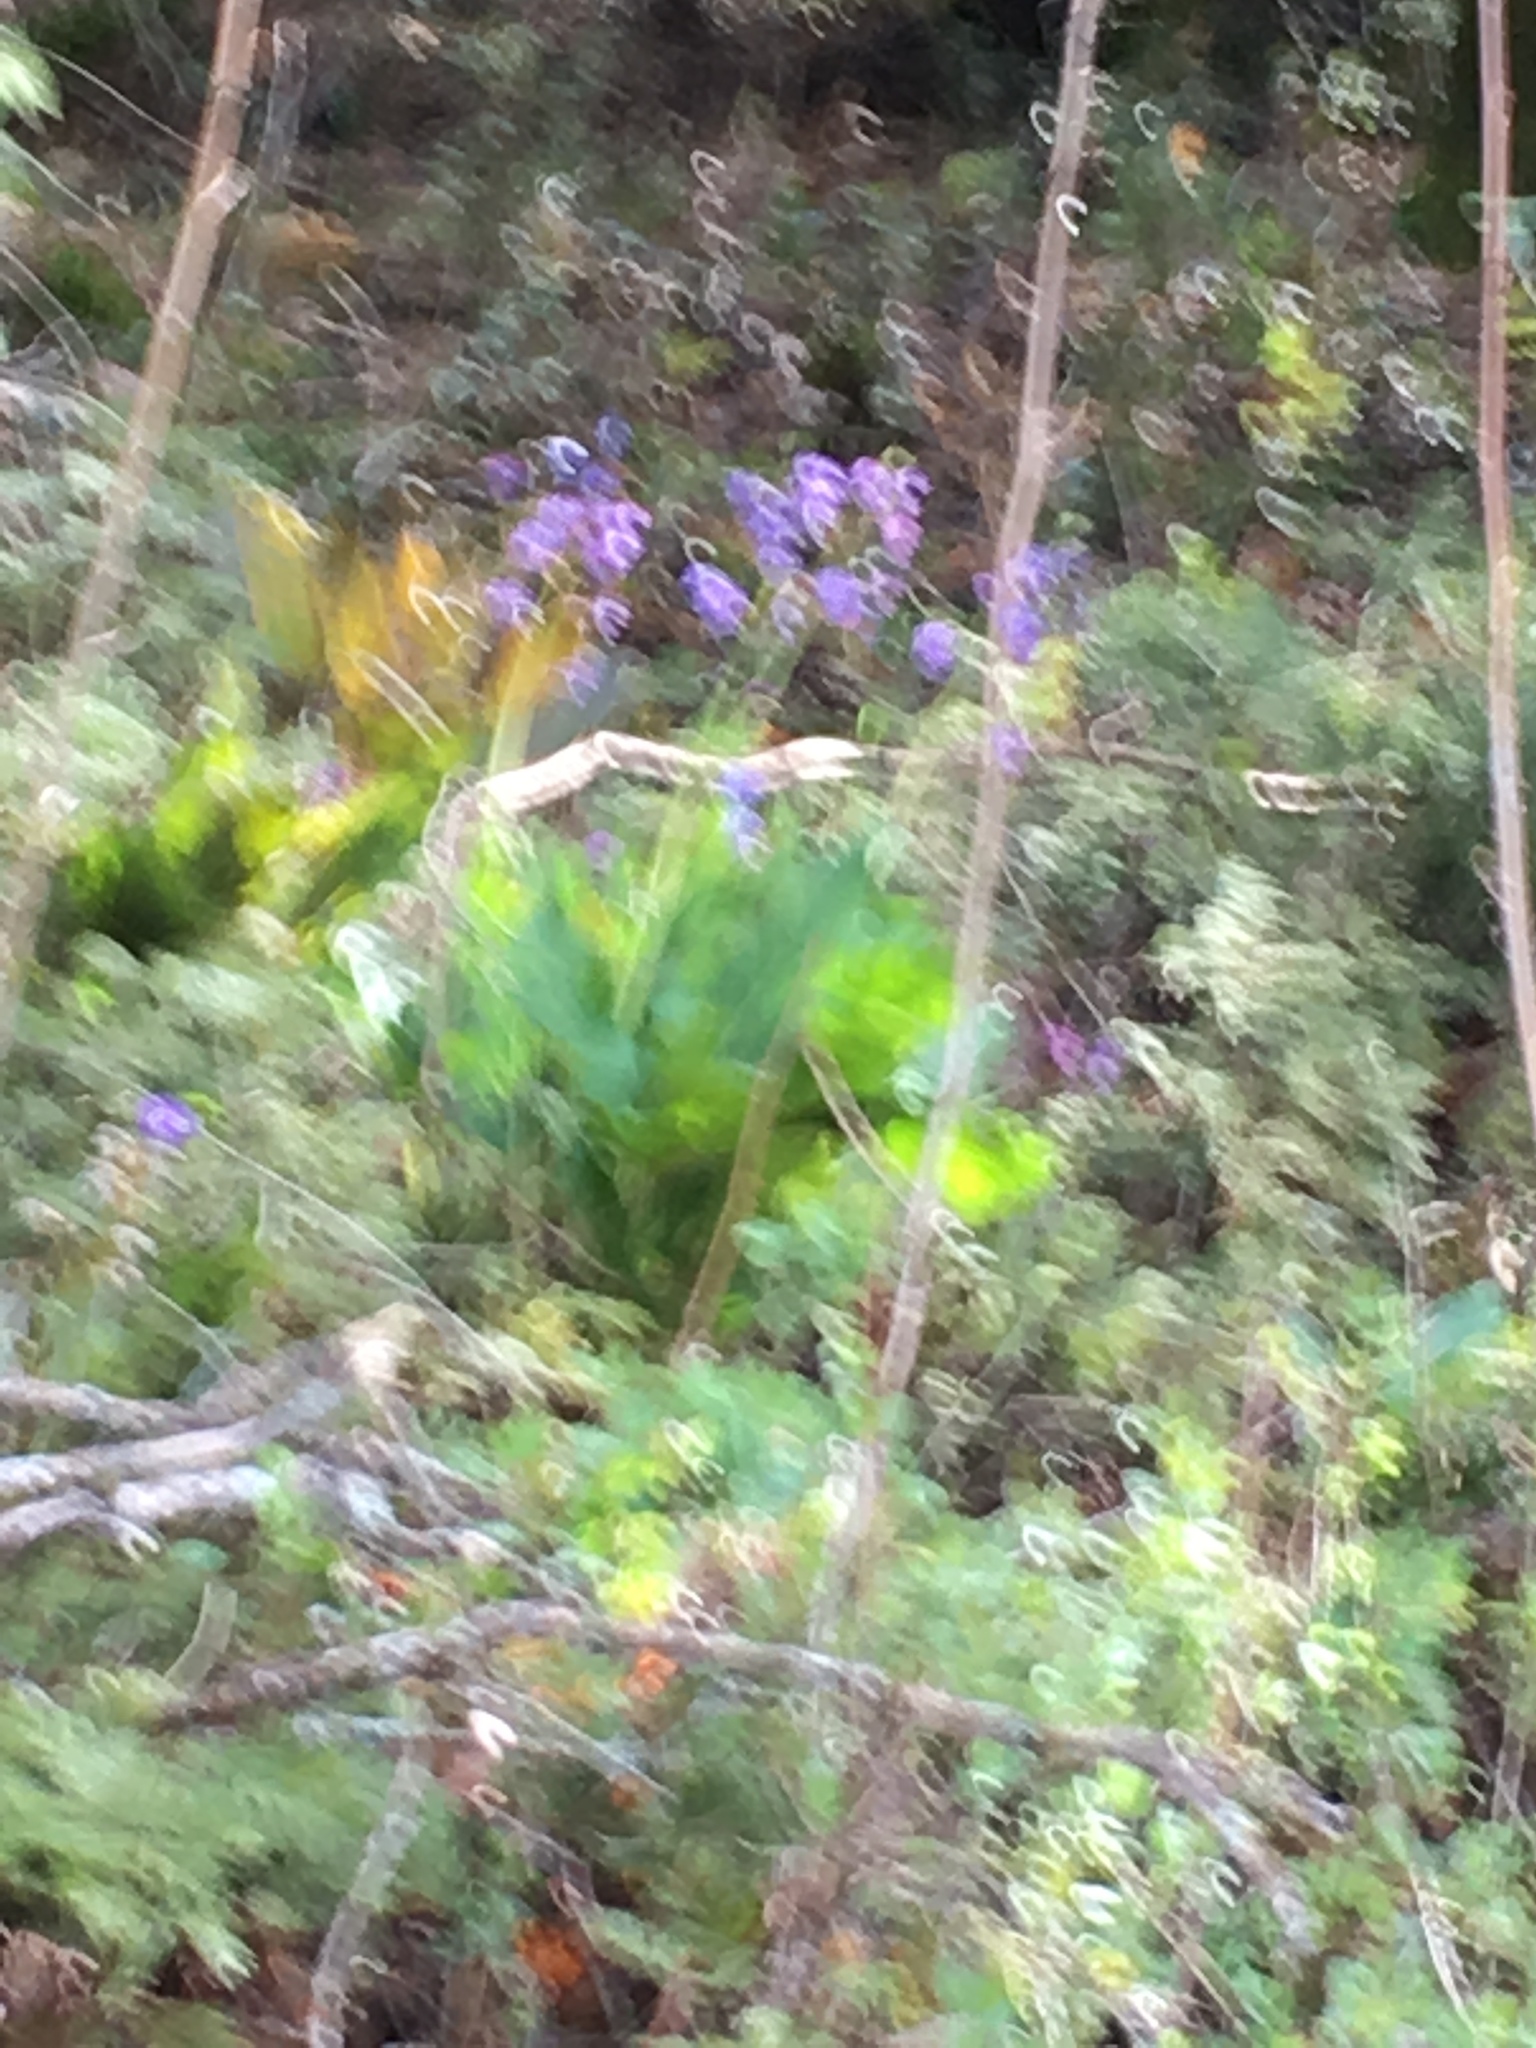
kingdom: Plantae
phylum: Tracheophyta
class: Magnoliopsida
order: Boraginales
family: Boraginaceae
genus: Adelinia
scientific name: Adelinia grande
